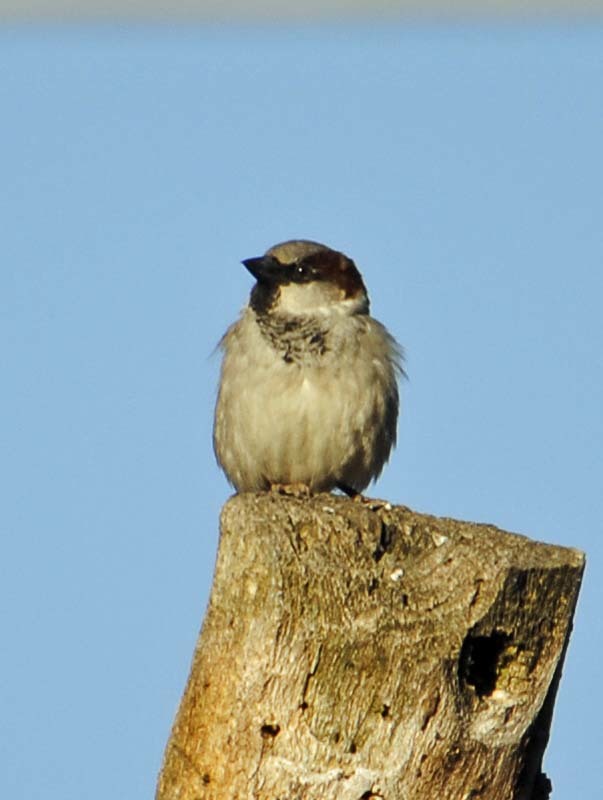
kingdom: Animalia
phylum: Chordata
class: Aves
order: Passeriformes
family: Passeridae
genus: Passer
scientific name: Passer domesticus
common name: House sparrow
